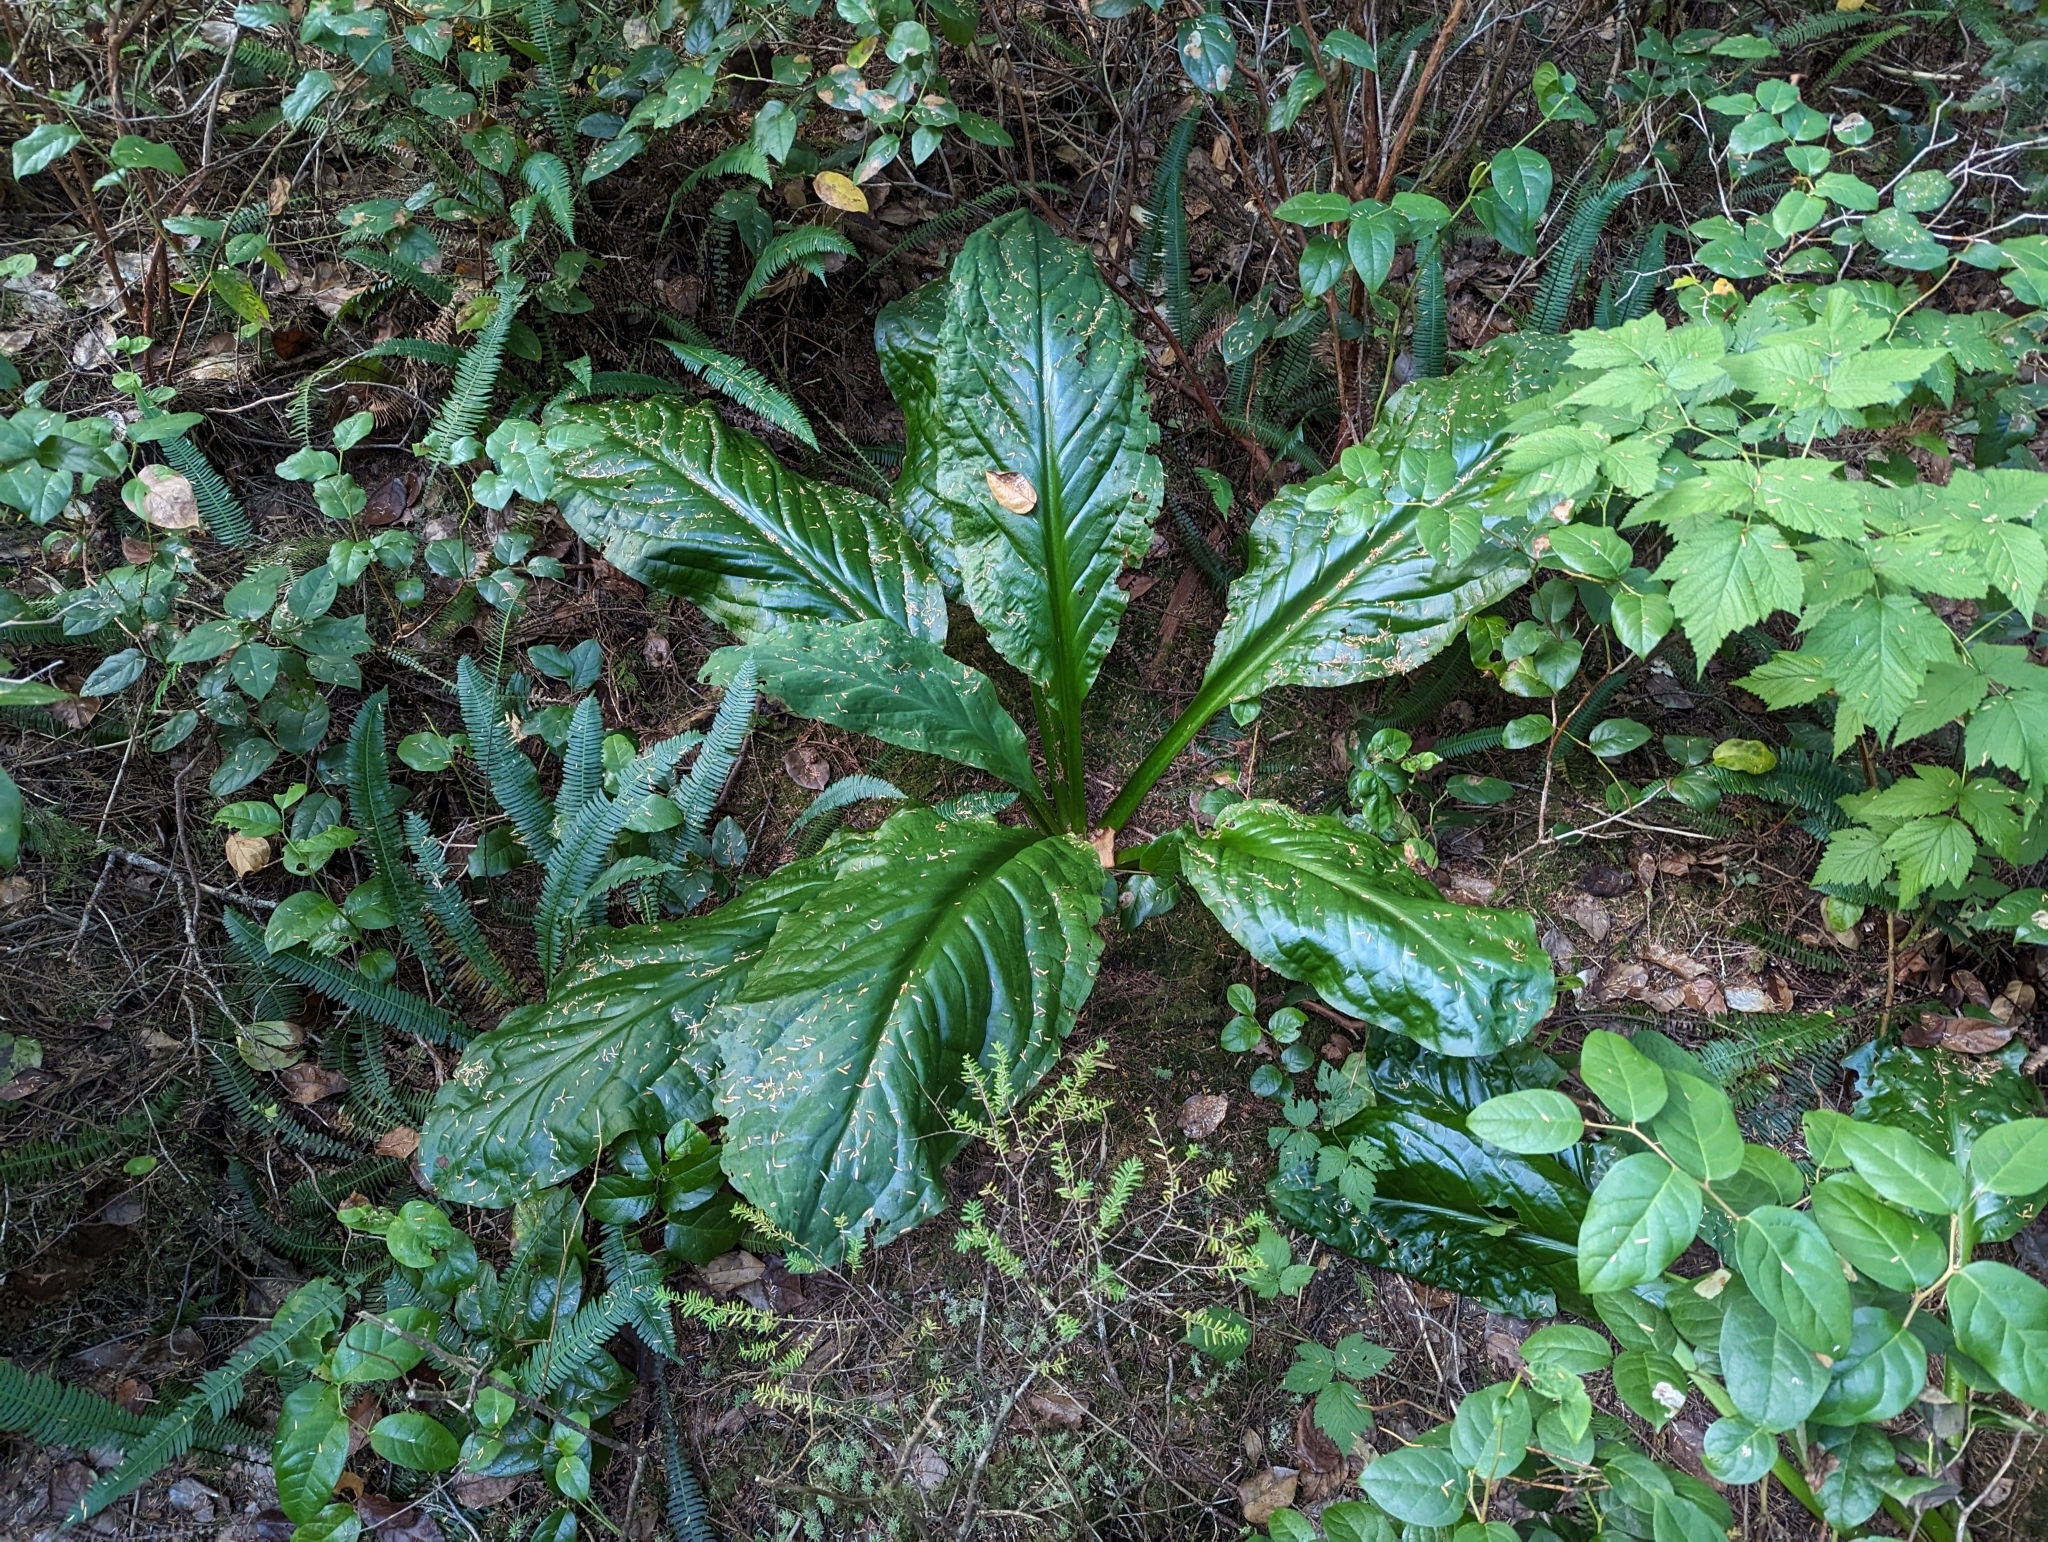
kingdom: Plantae
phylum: Tracheophyta
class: Liliopsida
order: Alismatales
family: Araceae
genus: Lysichiton
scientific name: Lysichiton americanus
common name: American skunk cabbage
